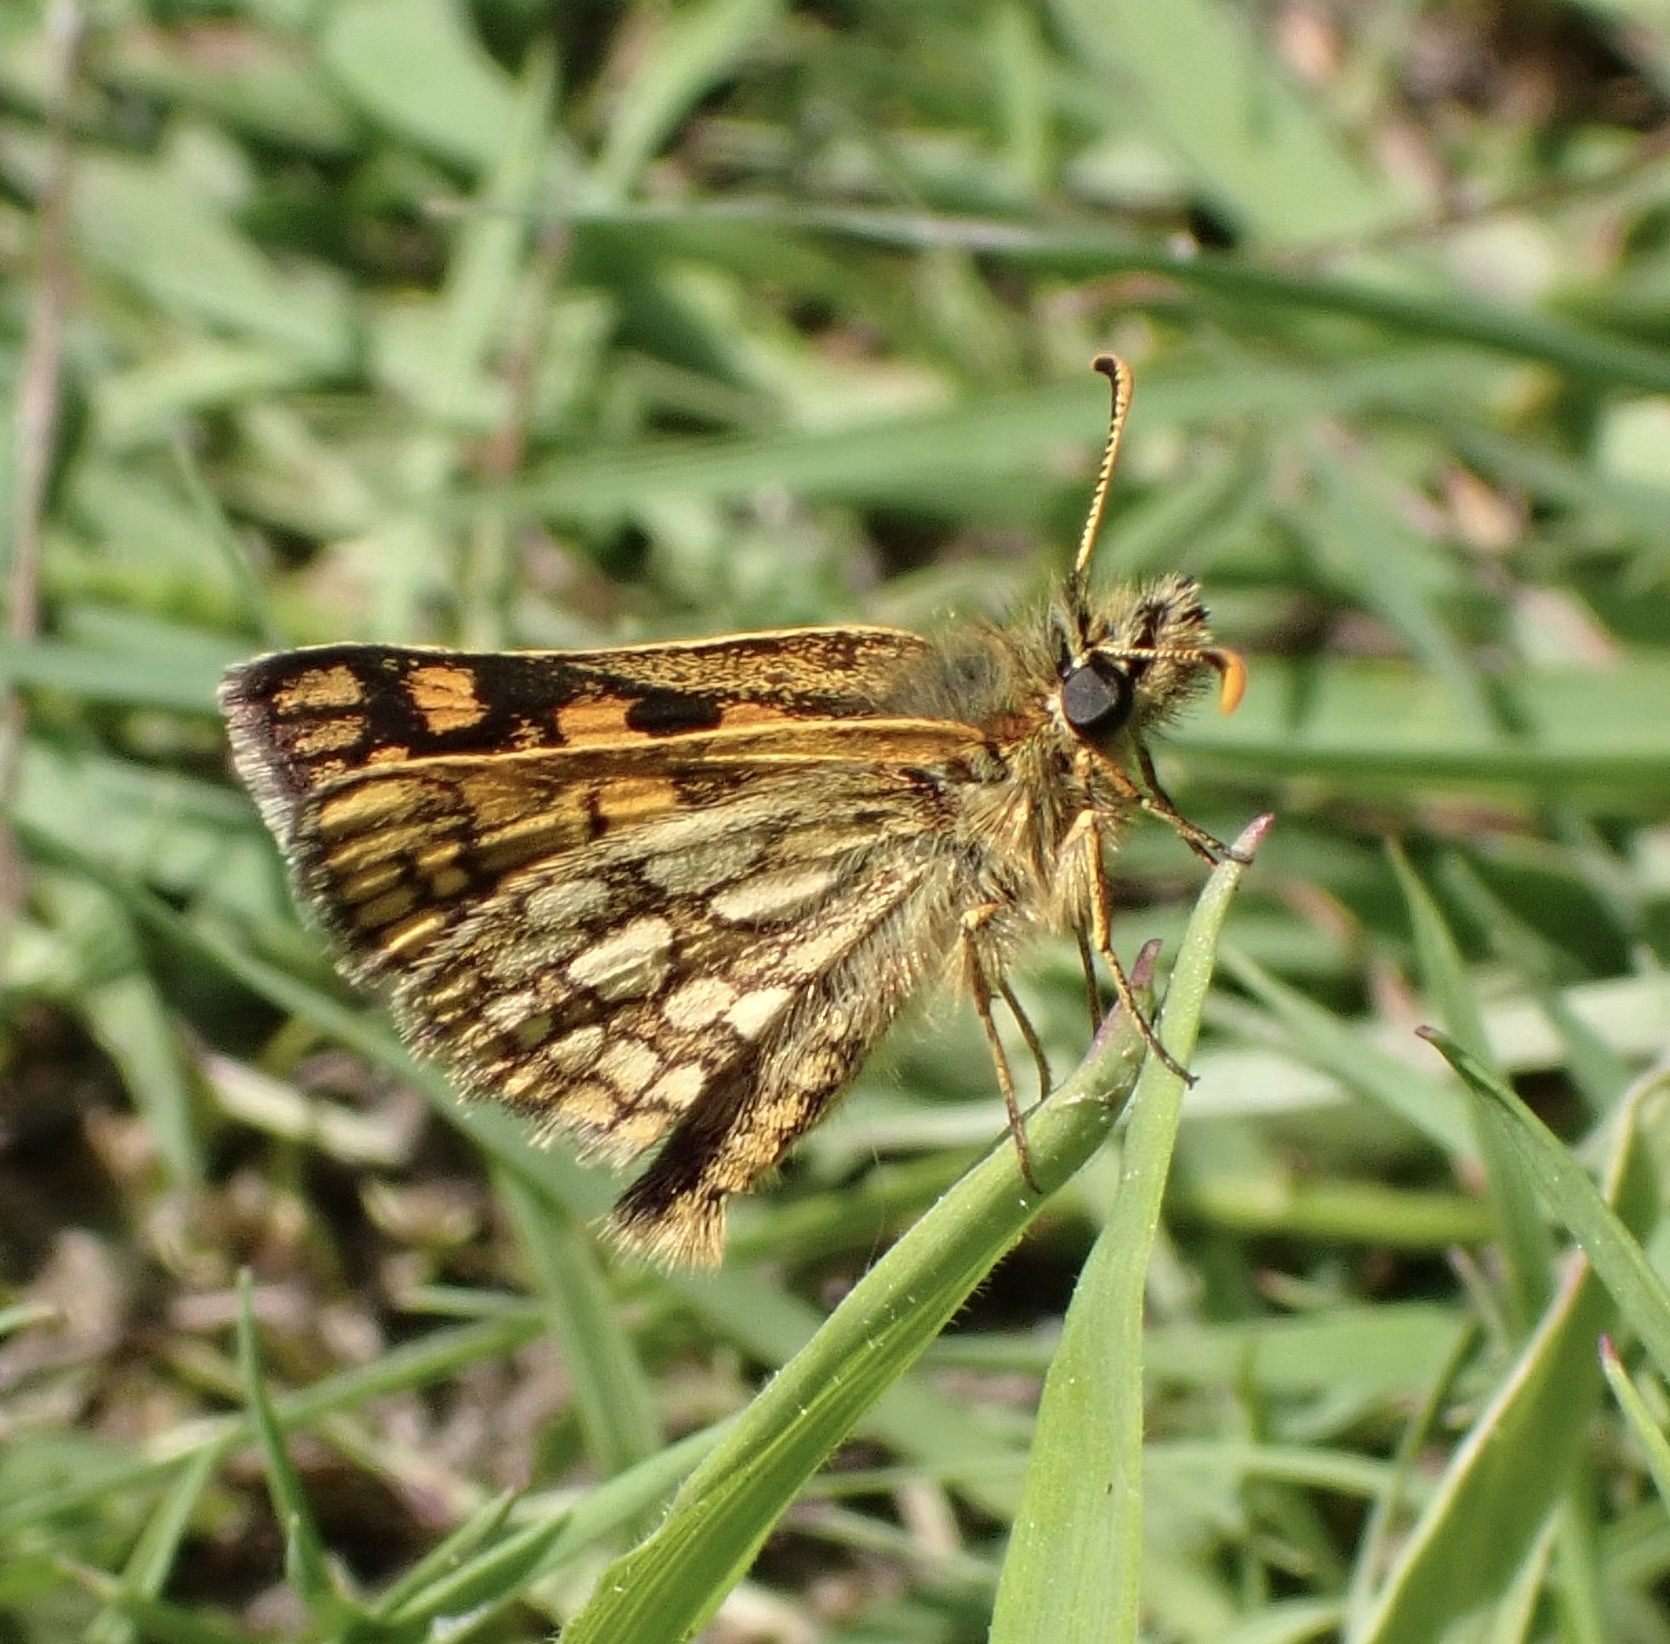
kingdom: Animalia
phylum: Arthropoda
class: Insecta
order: Lepidoptera
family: Hesperiidae
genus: Carterocephalus
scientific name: Carterocephalus palaemon
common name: Chequered skipper
